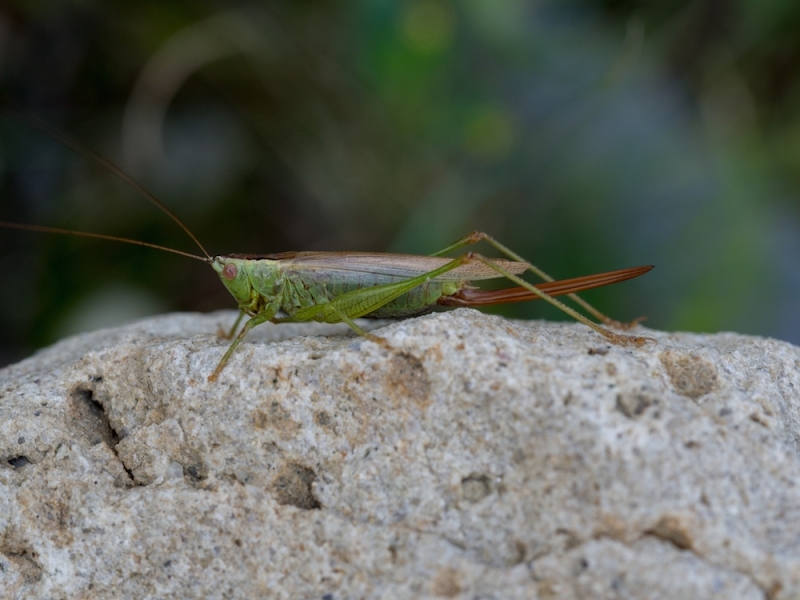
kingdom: Animalia
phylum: Arthropoda
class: Insecta
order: Orthoptera
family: Tettigoniidae
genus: Conocephalus
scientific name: Conocephalus fuscus
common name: Long-winged conehead
